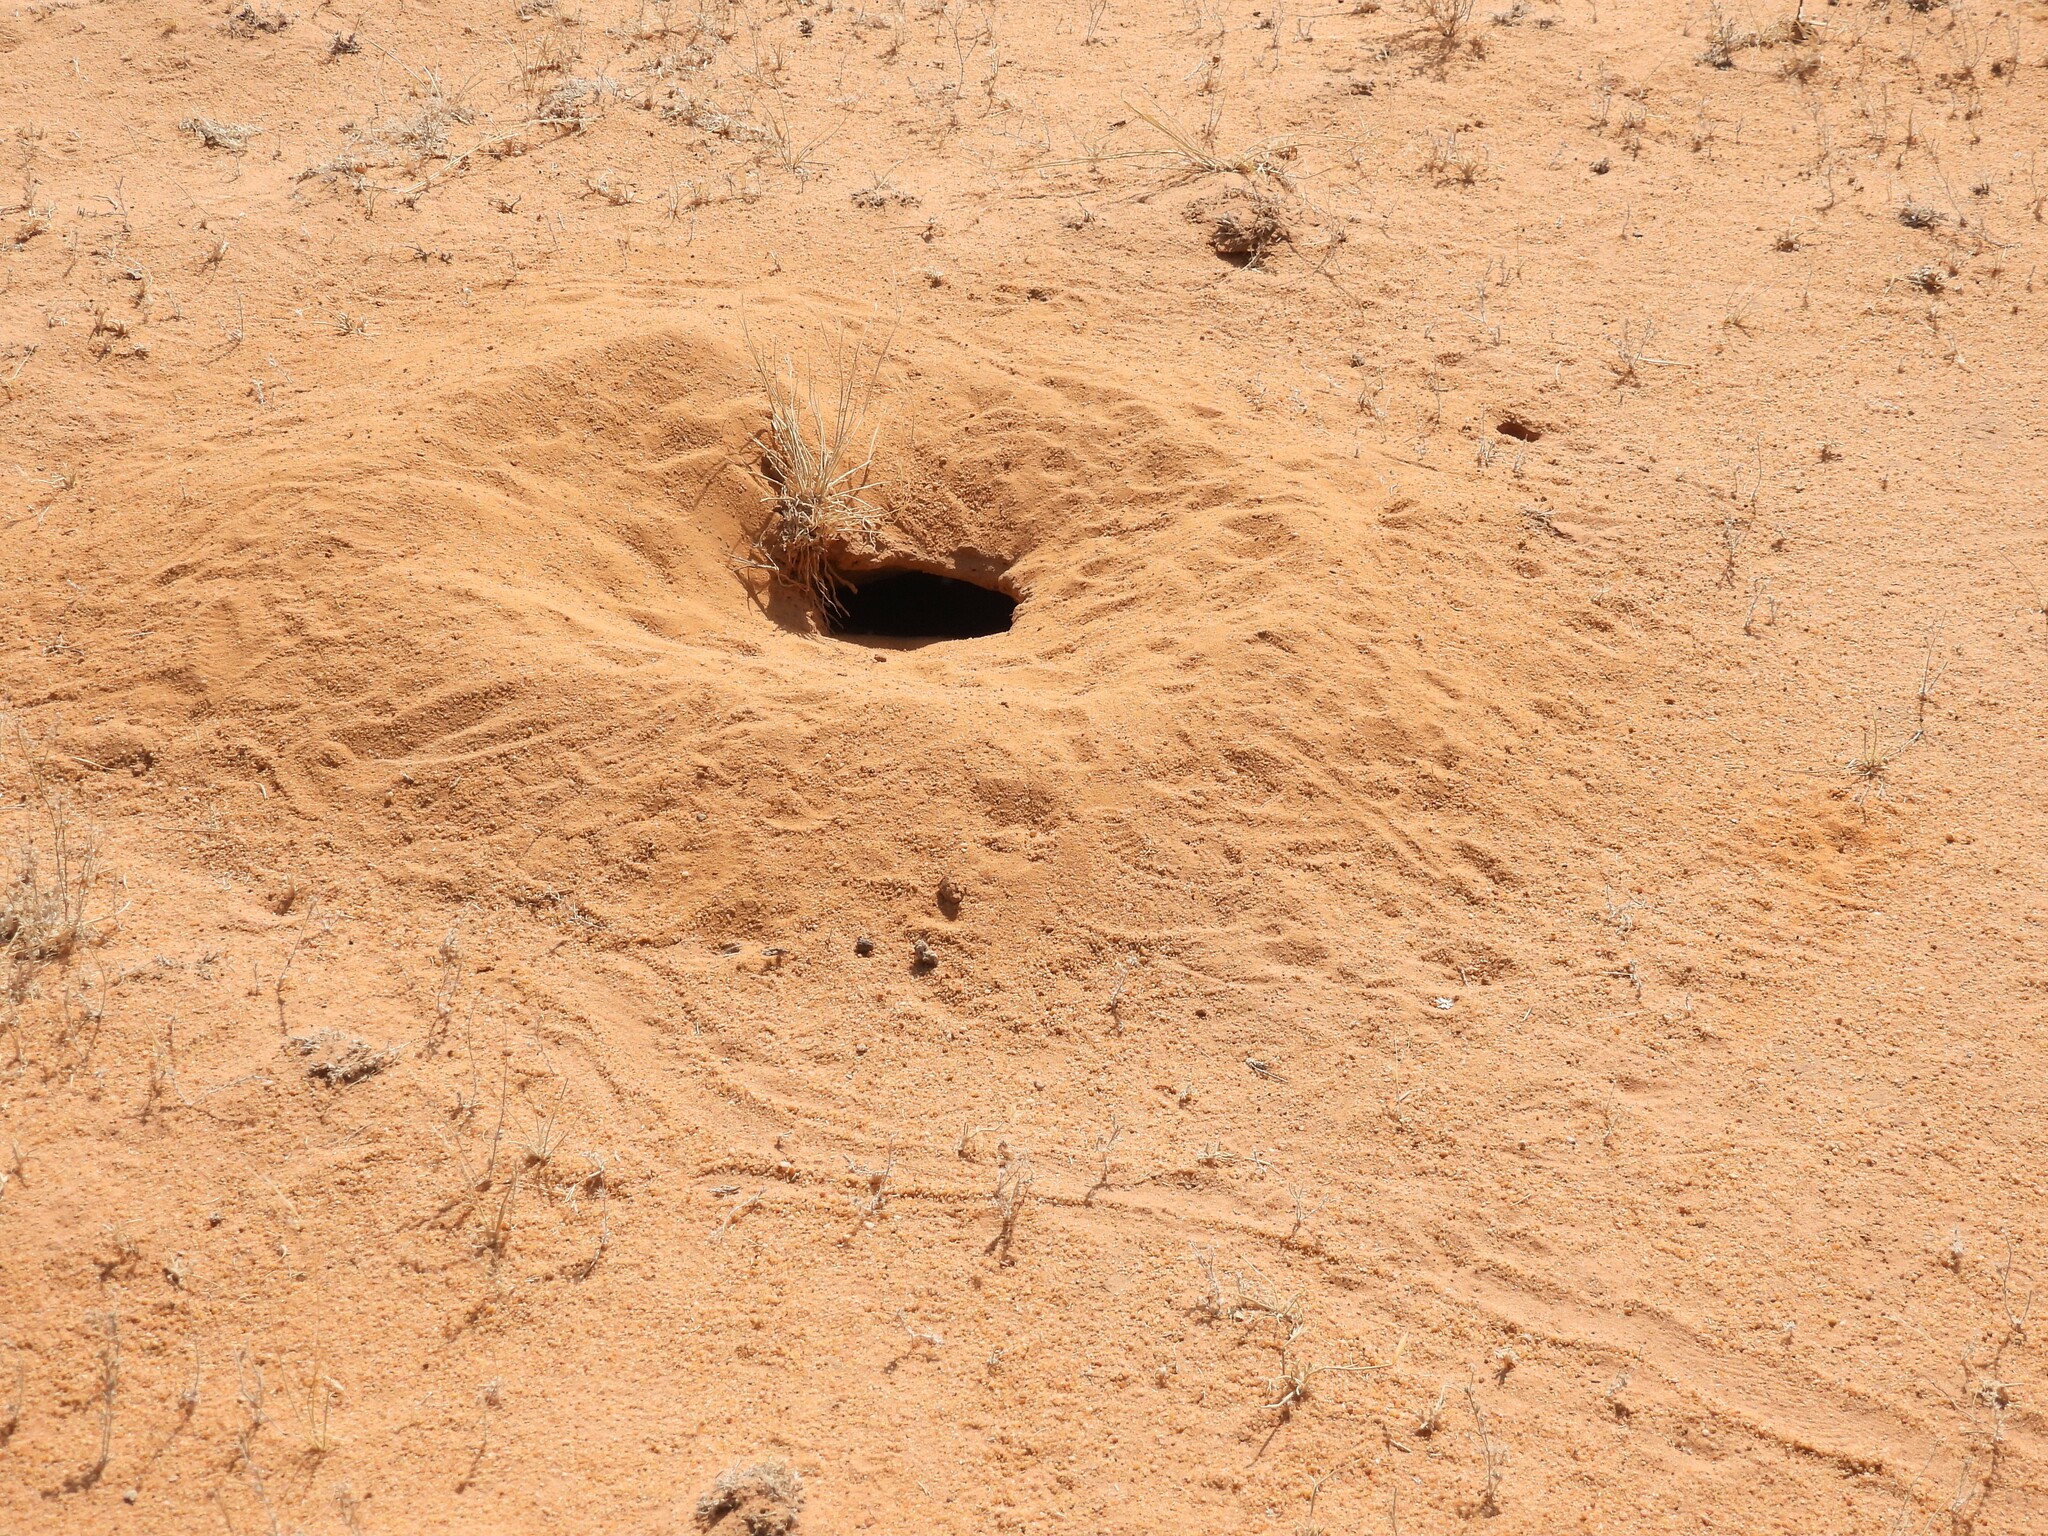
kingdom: Animalia
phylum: Chordata
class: Squamata
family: Agamidae
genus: Uromastyx
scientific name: Uromastyx aegyptia
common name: Egyptian mastigure
